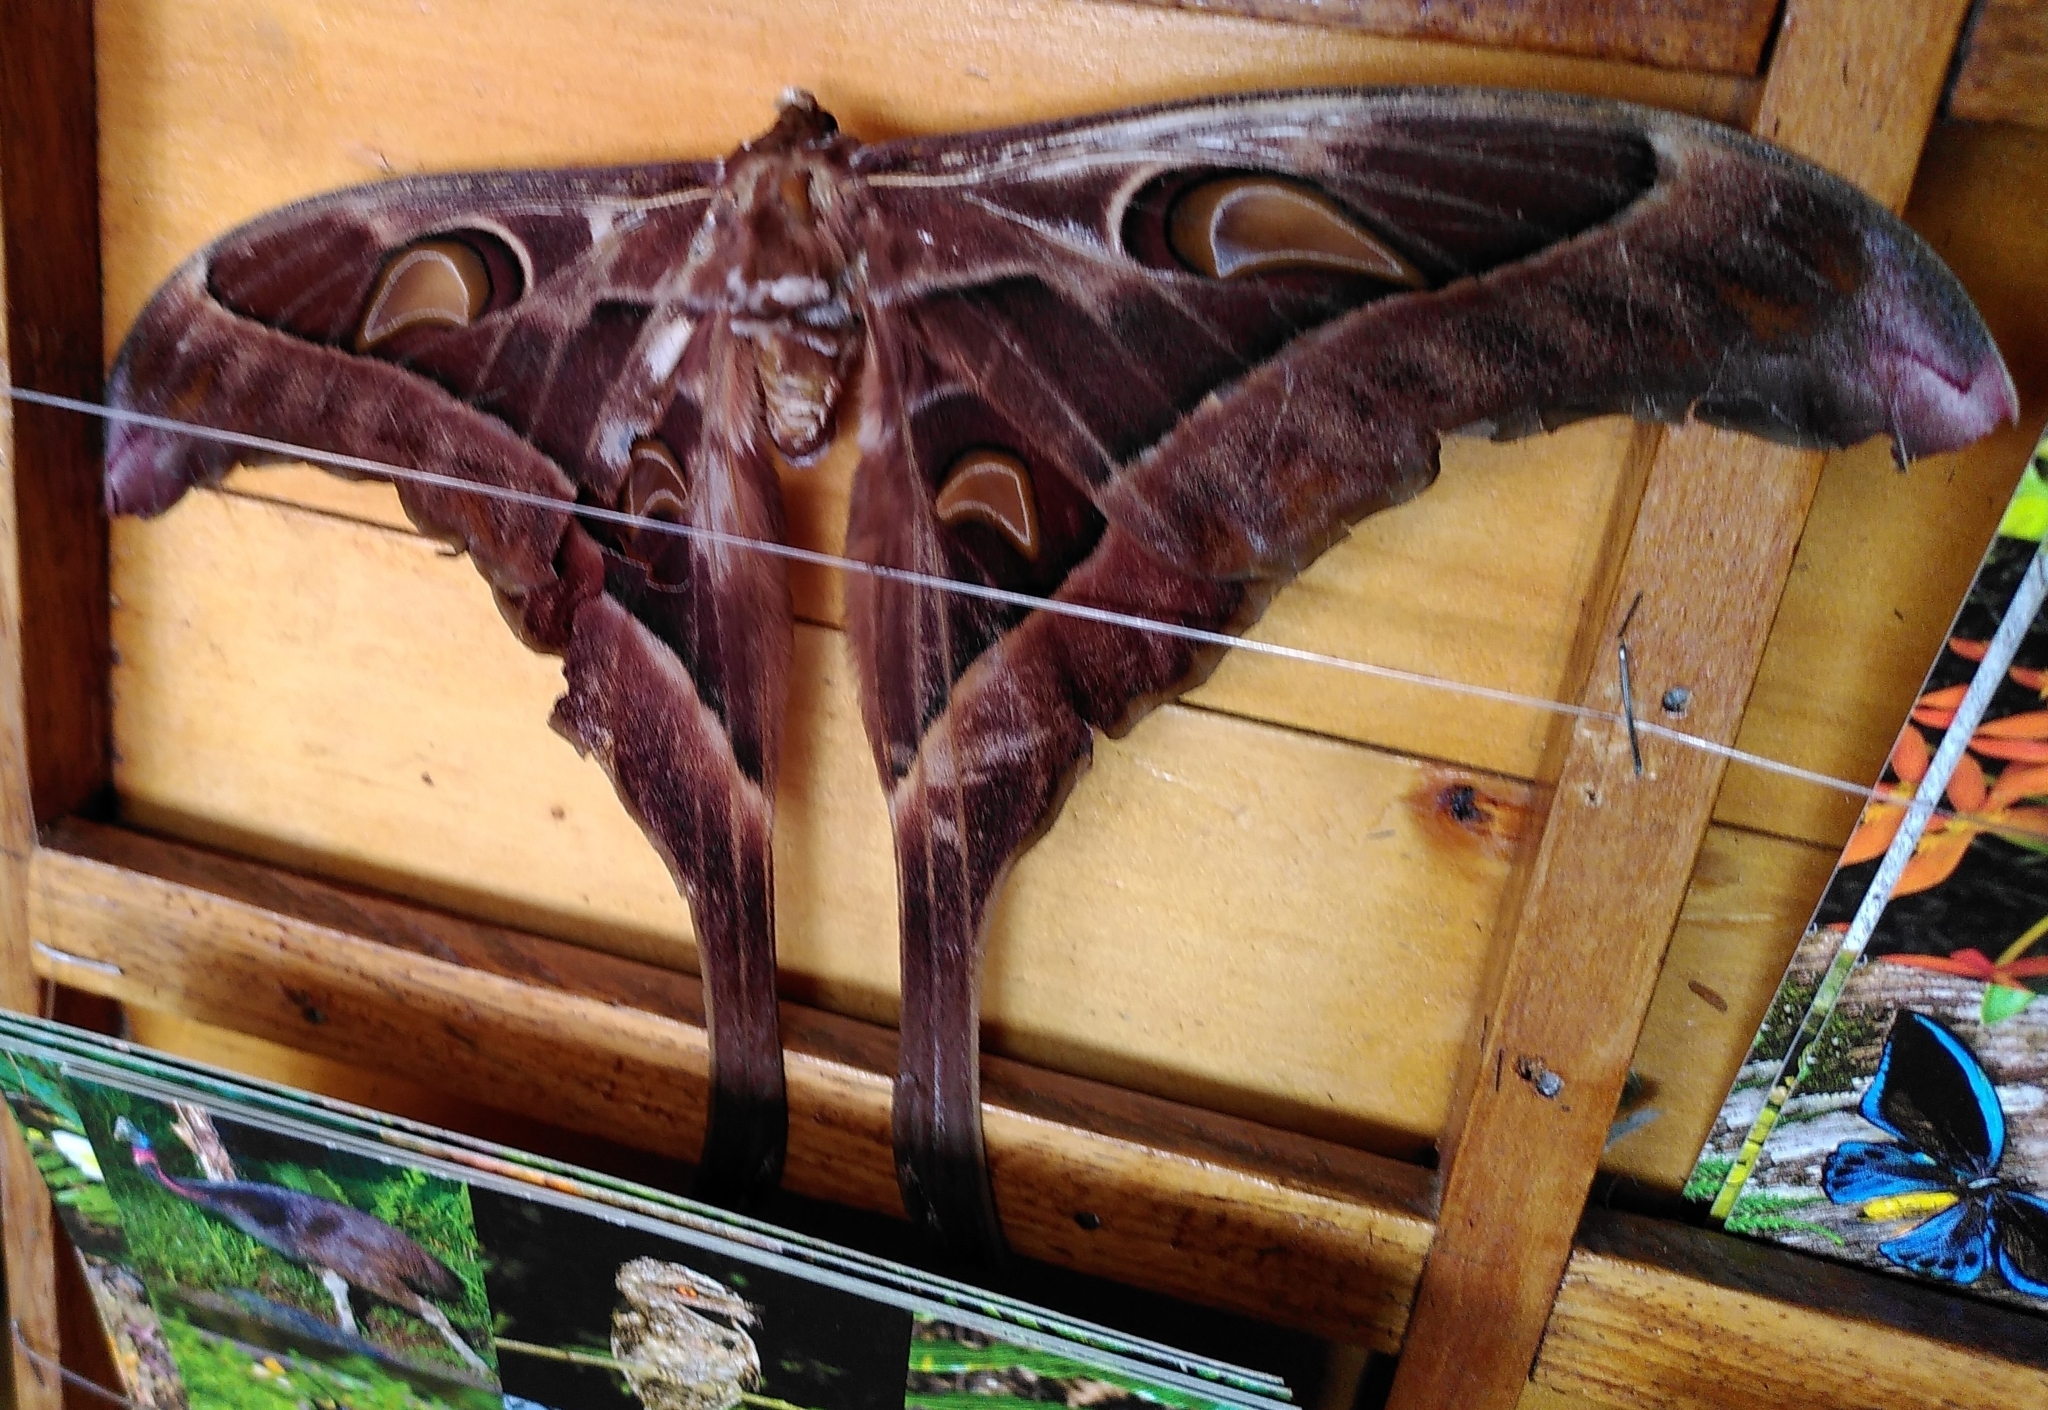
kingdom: Animalia
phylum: Arthropoda
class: Insecta
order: Lepidoptera
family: Saturniidae
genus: Coscinocera
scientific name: Coscinocera hercules
